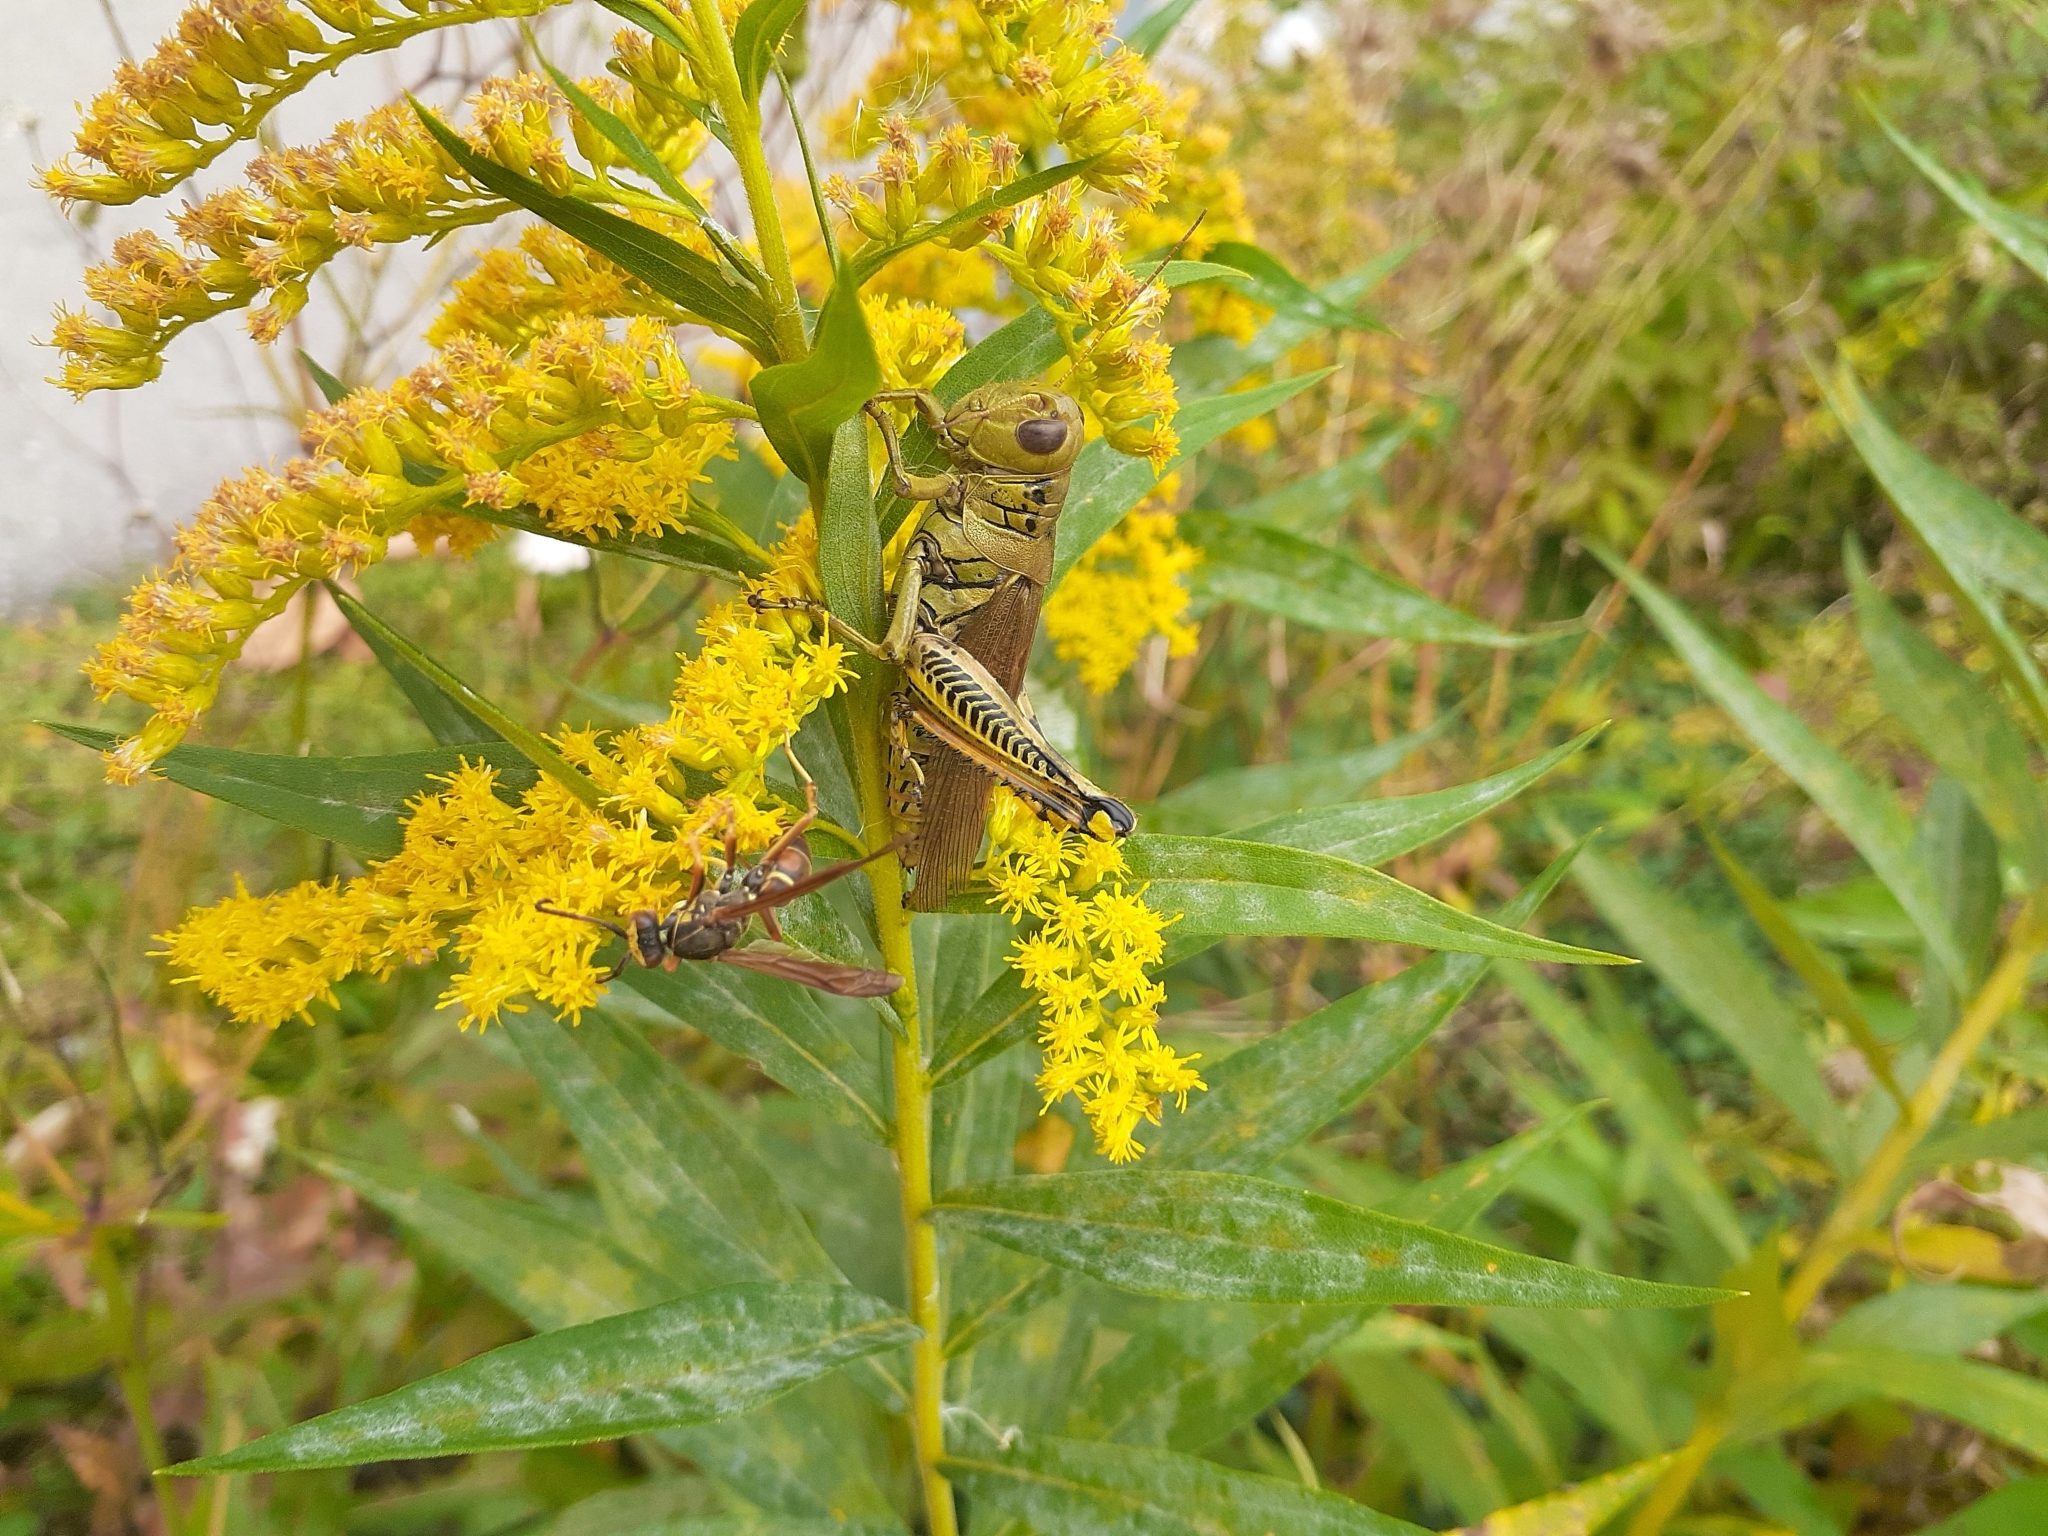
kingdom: Animalia
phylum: Arthropoda
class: Insecta
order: Orthoptera
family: Acrididae
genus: Melanoplus
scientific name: Melanoplus differentialis
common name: Differential grasshopper
